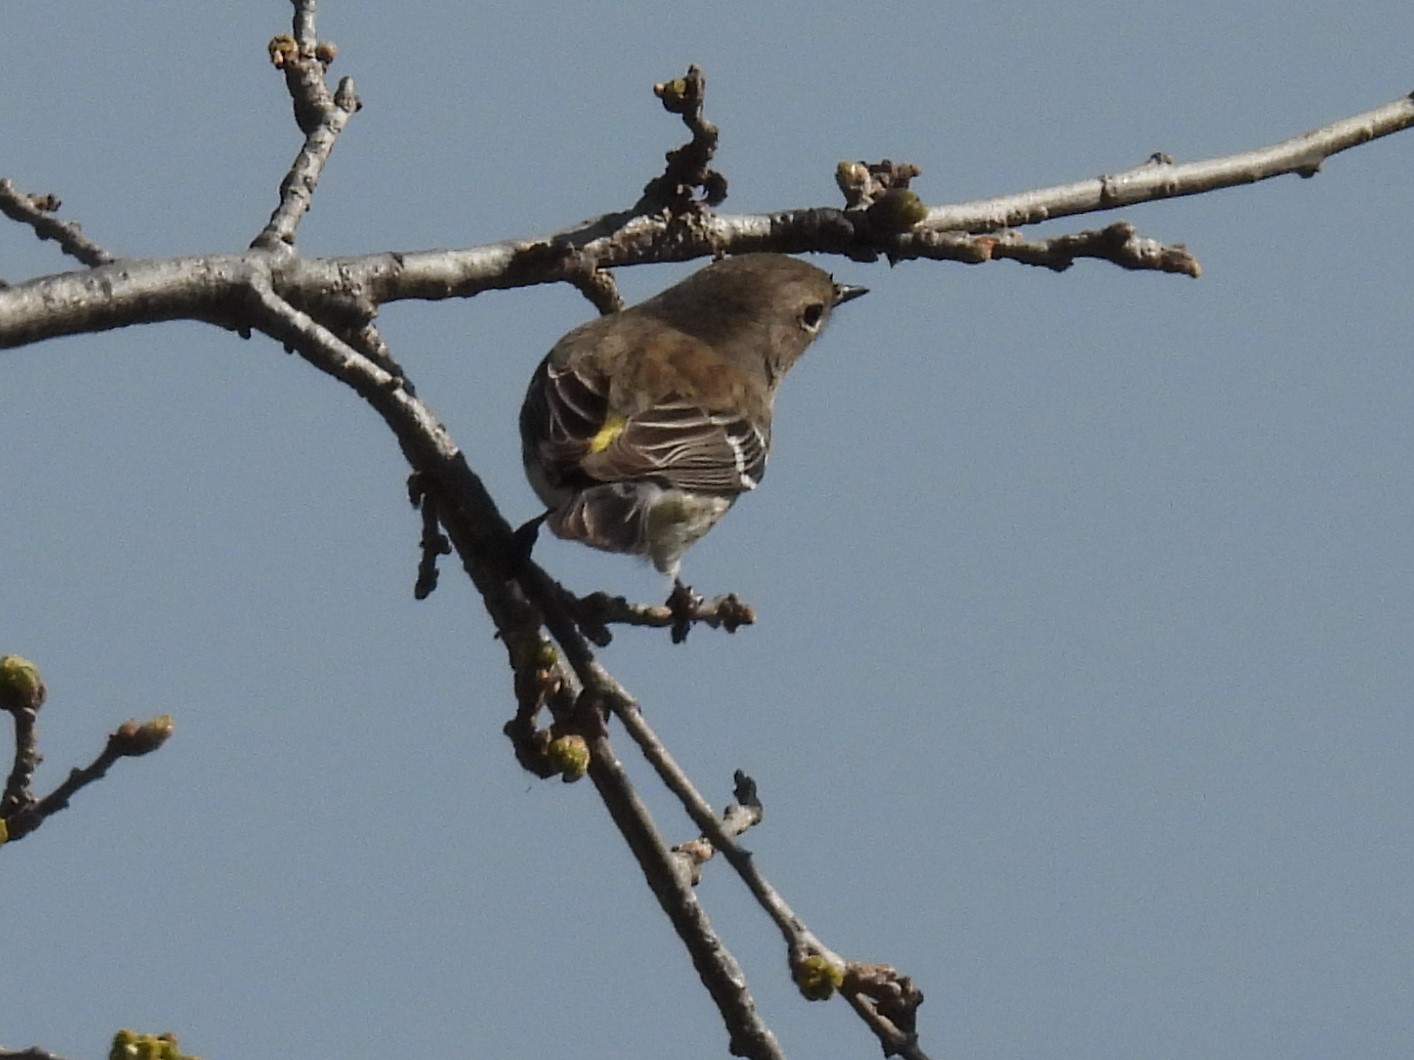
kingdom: Animalia
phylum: Chordata
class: Aves
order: Passeriformes
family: Parulidae
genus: Setophaga
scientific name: Setophaga coronata
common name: Myrtle warbler
